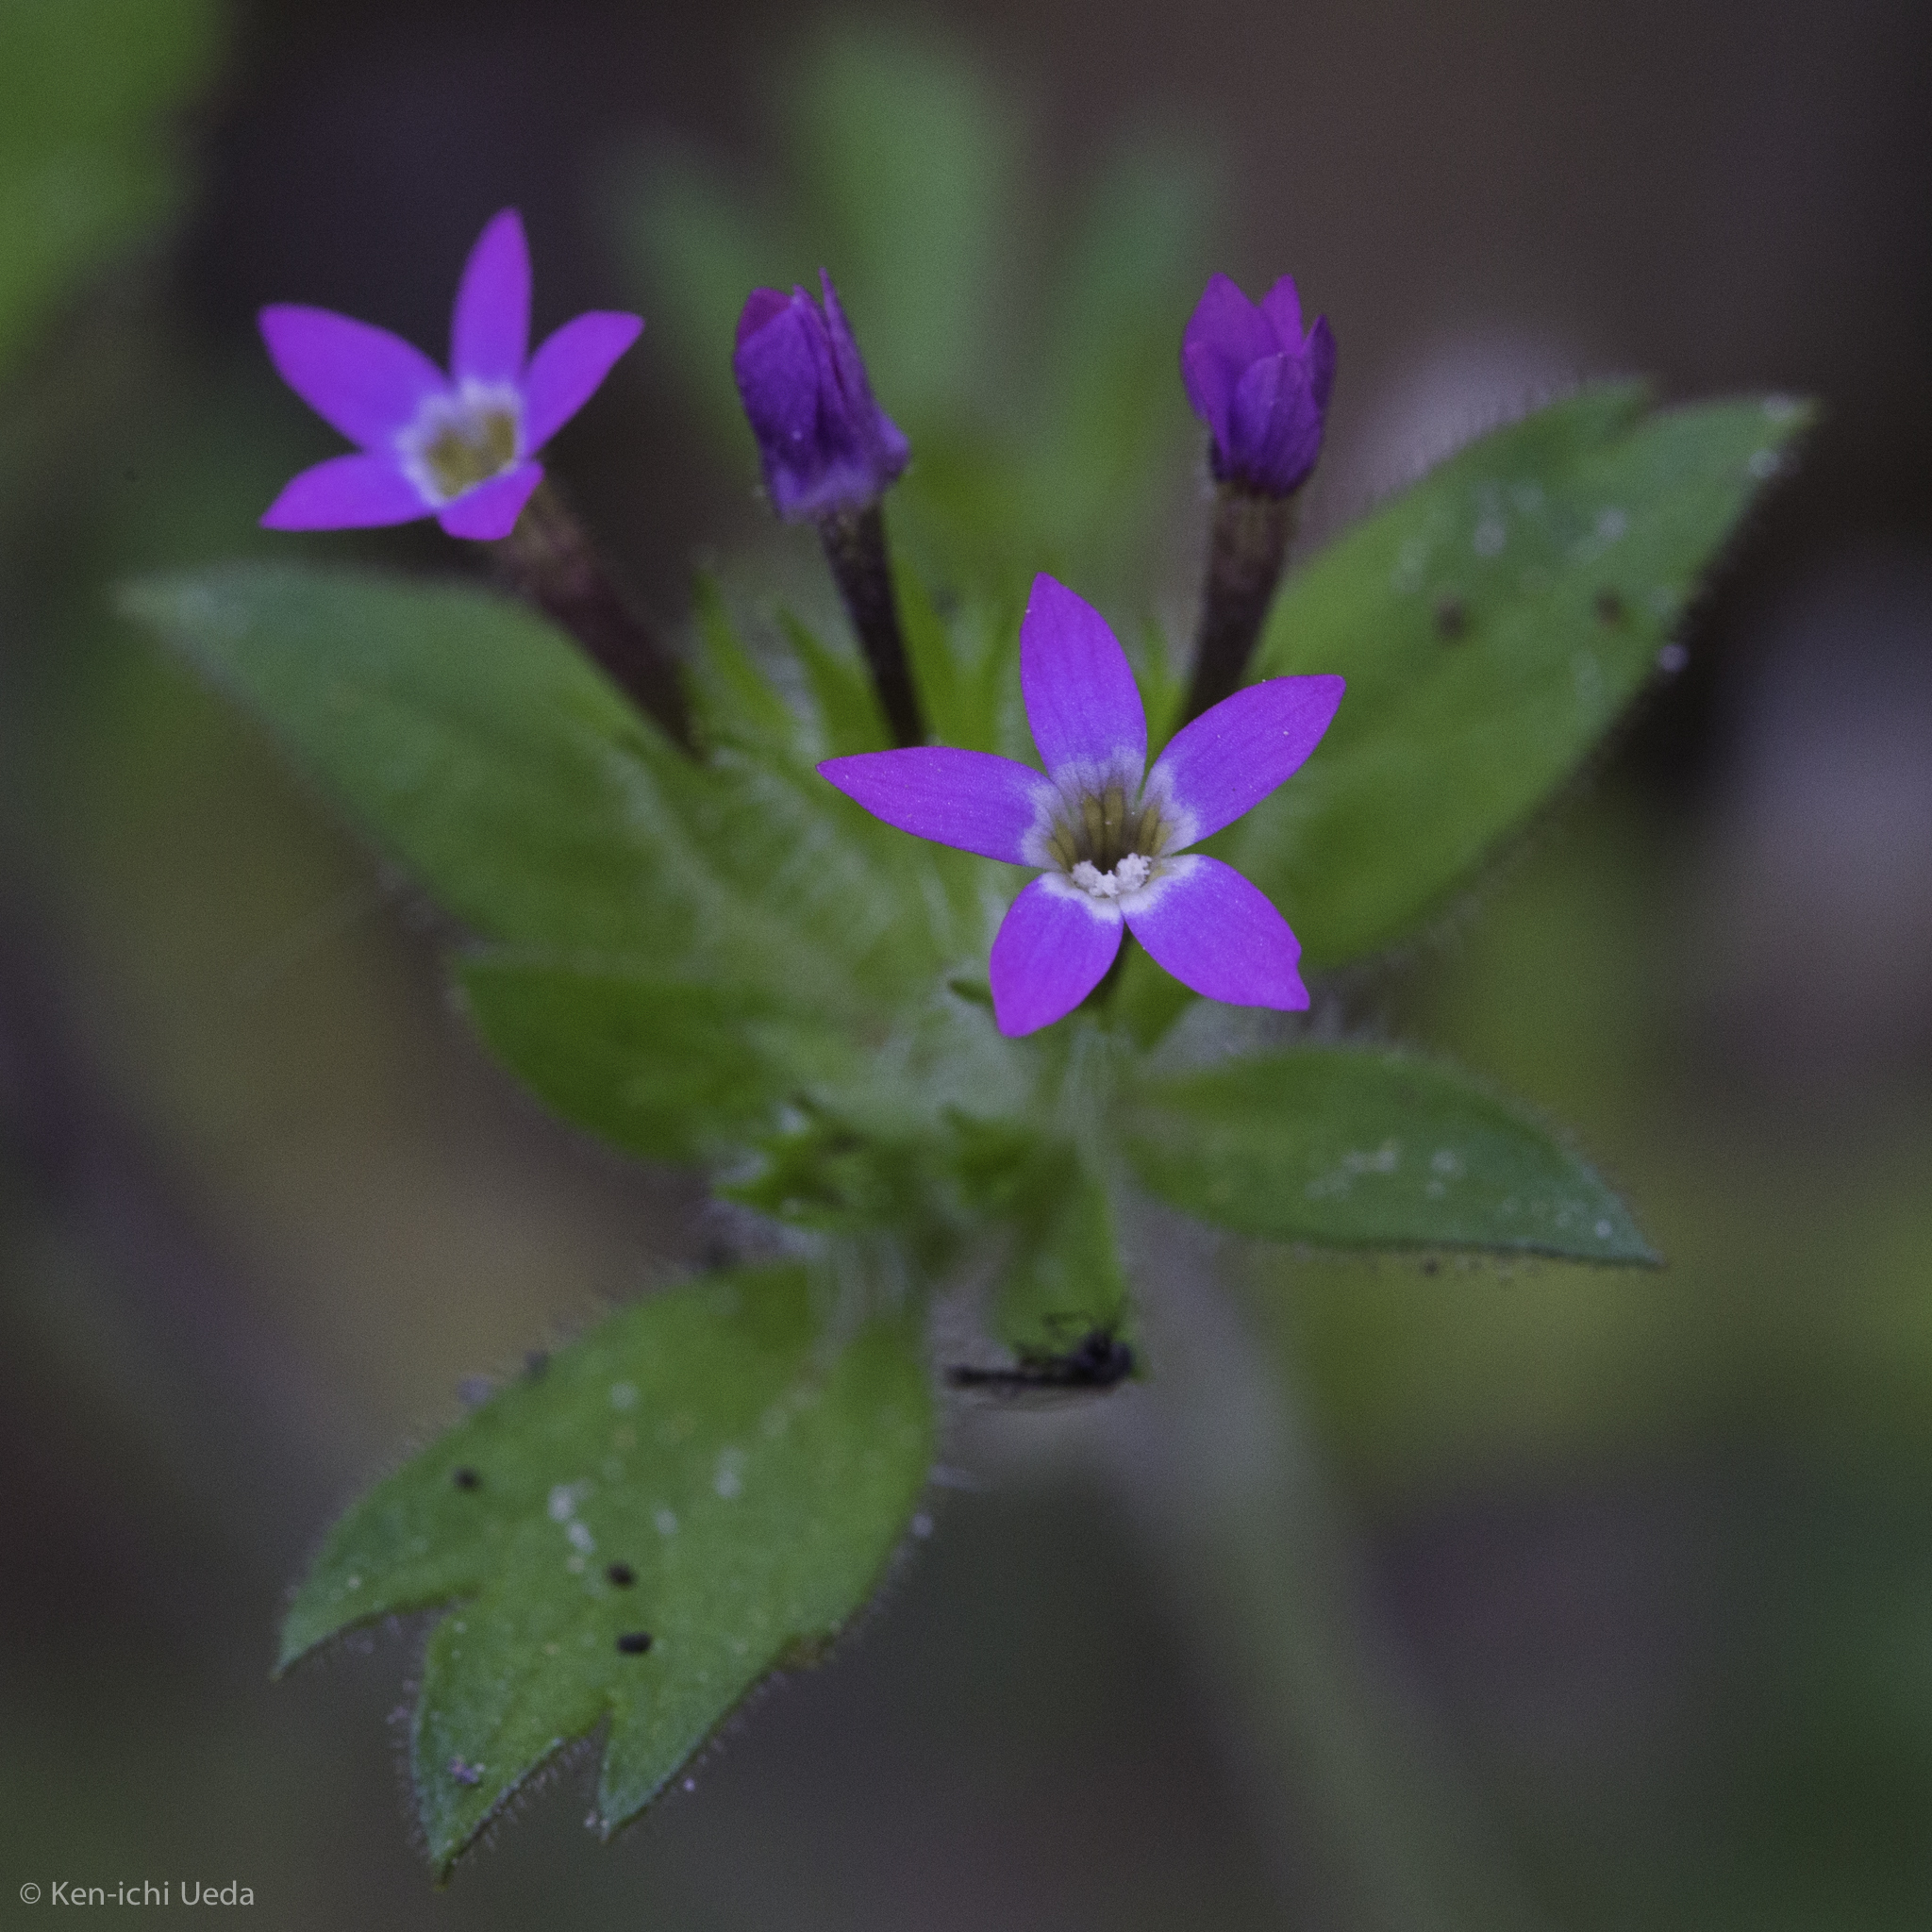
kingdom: Plantae
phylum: Tracheophyta
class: Magnoliopsida
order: Ericales
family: Polemoniaceae
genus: Collomia
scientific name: Collomia heterophylla
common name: Variable-leaved collomia
